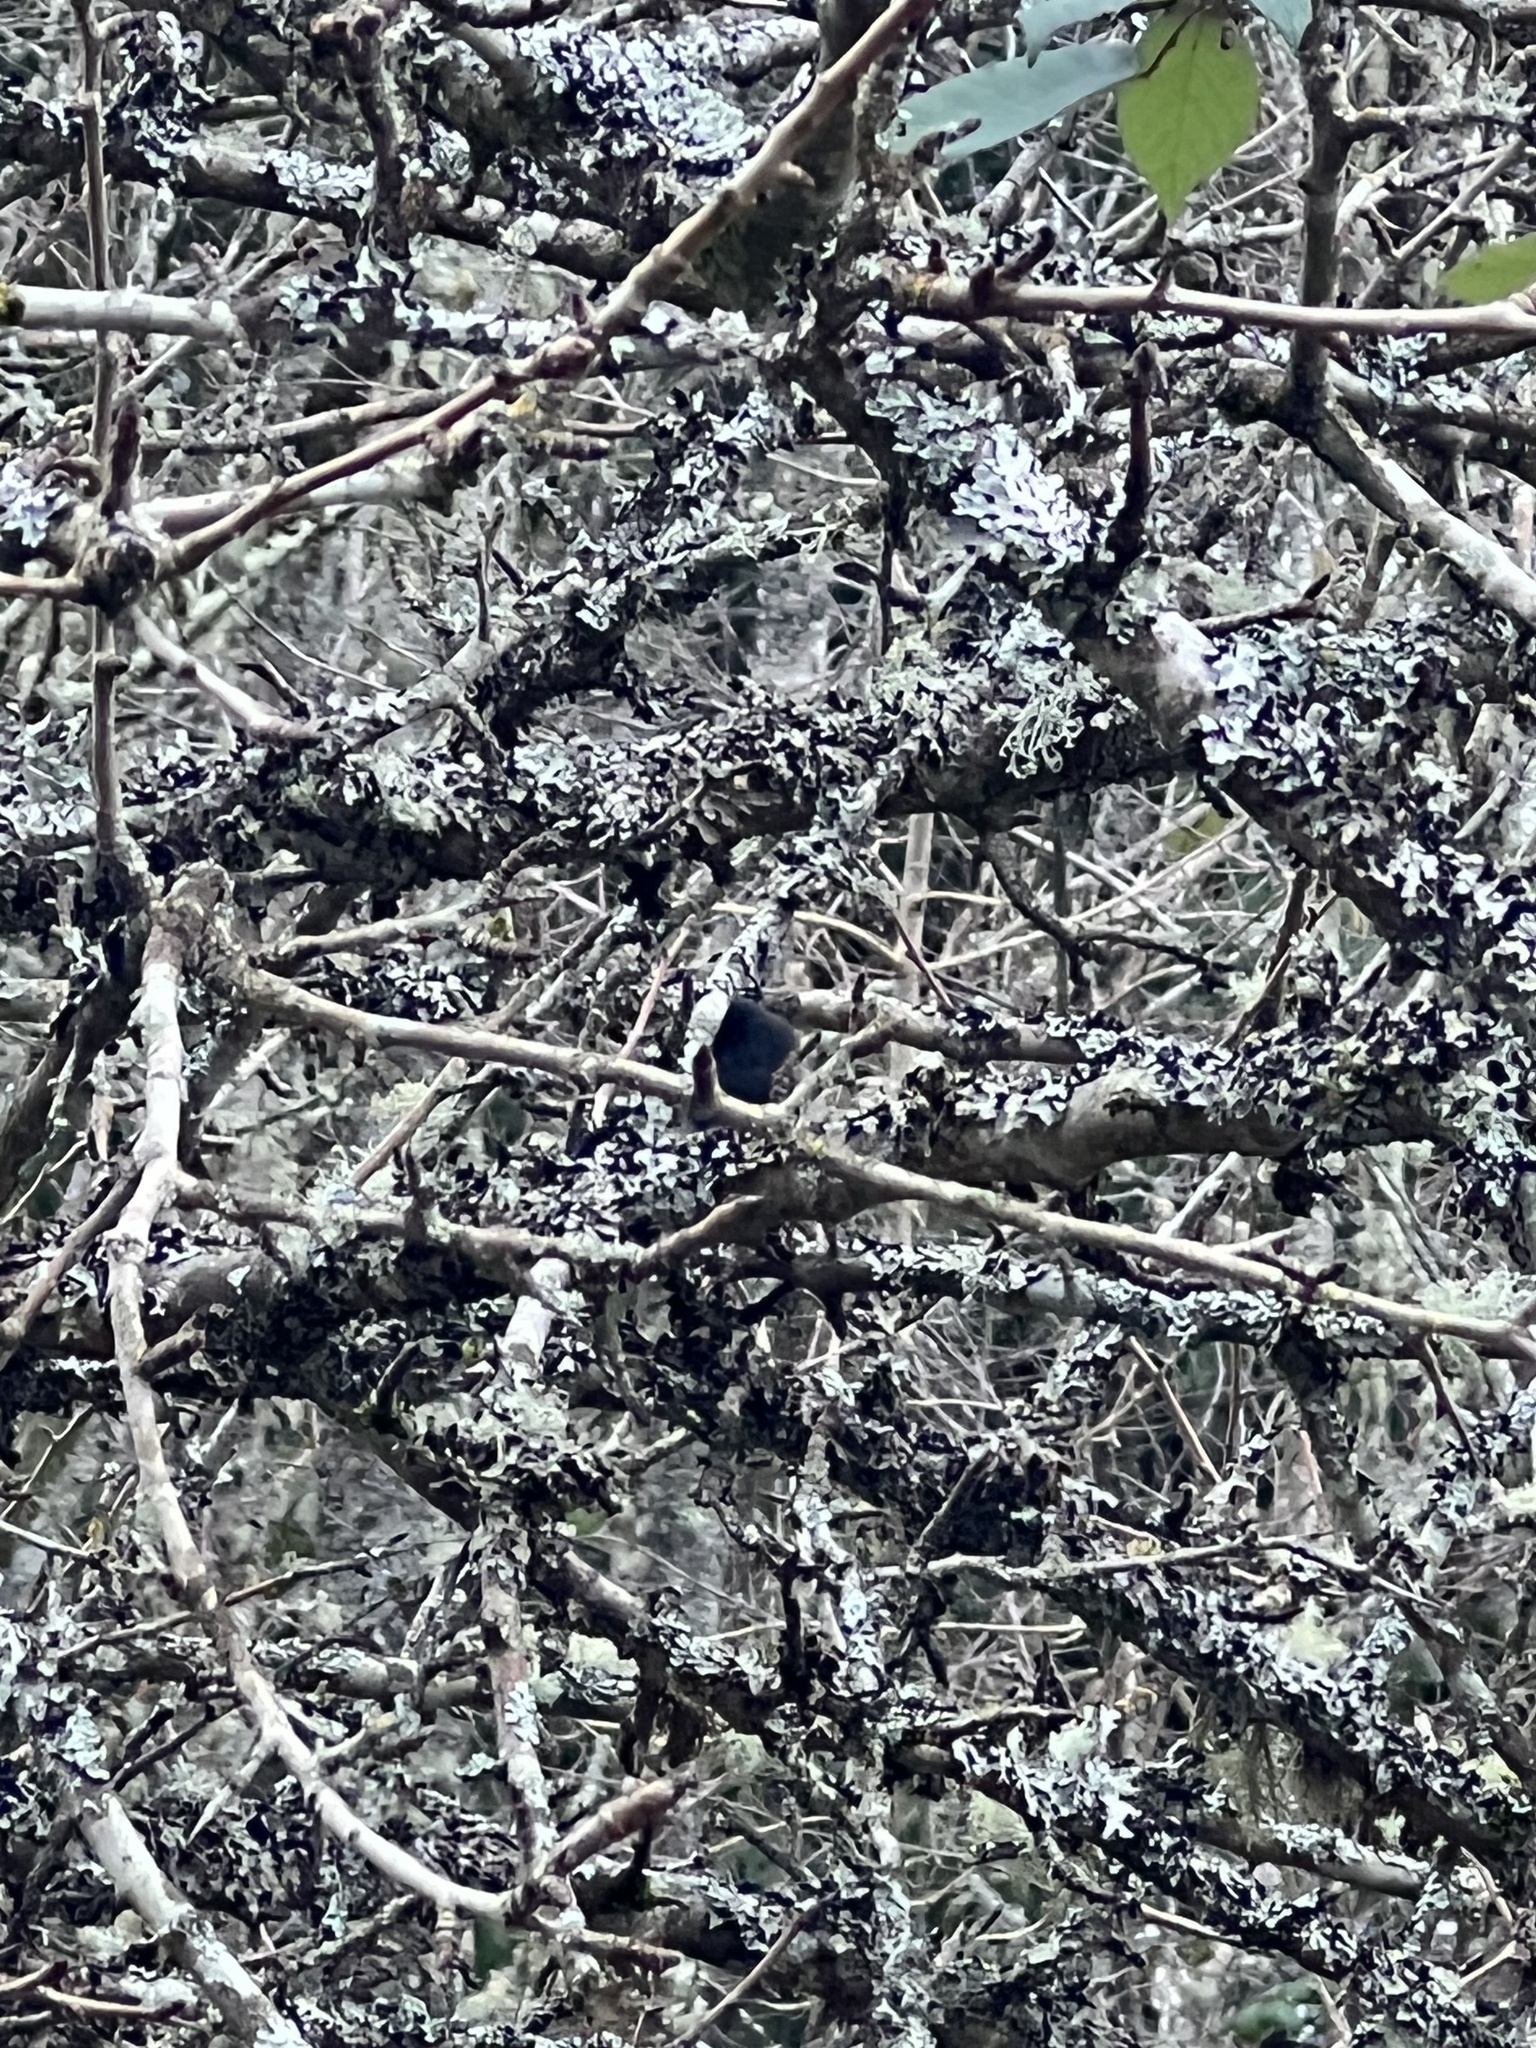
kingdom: Animalia
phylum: Chordata
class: Aves
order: Passeriformes
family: Passerellidae
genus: Junco
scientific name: Junco hyemalis
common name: Dark-eyed junco
